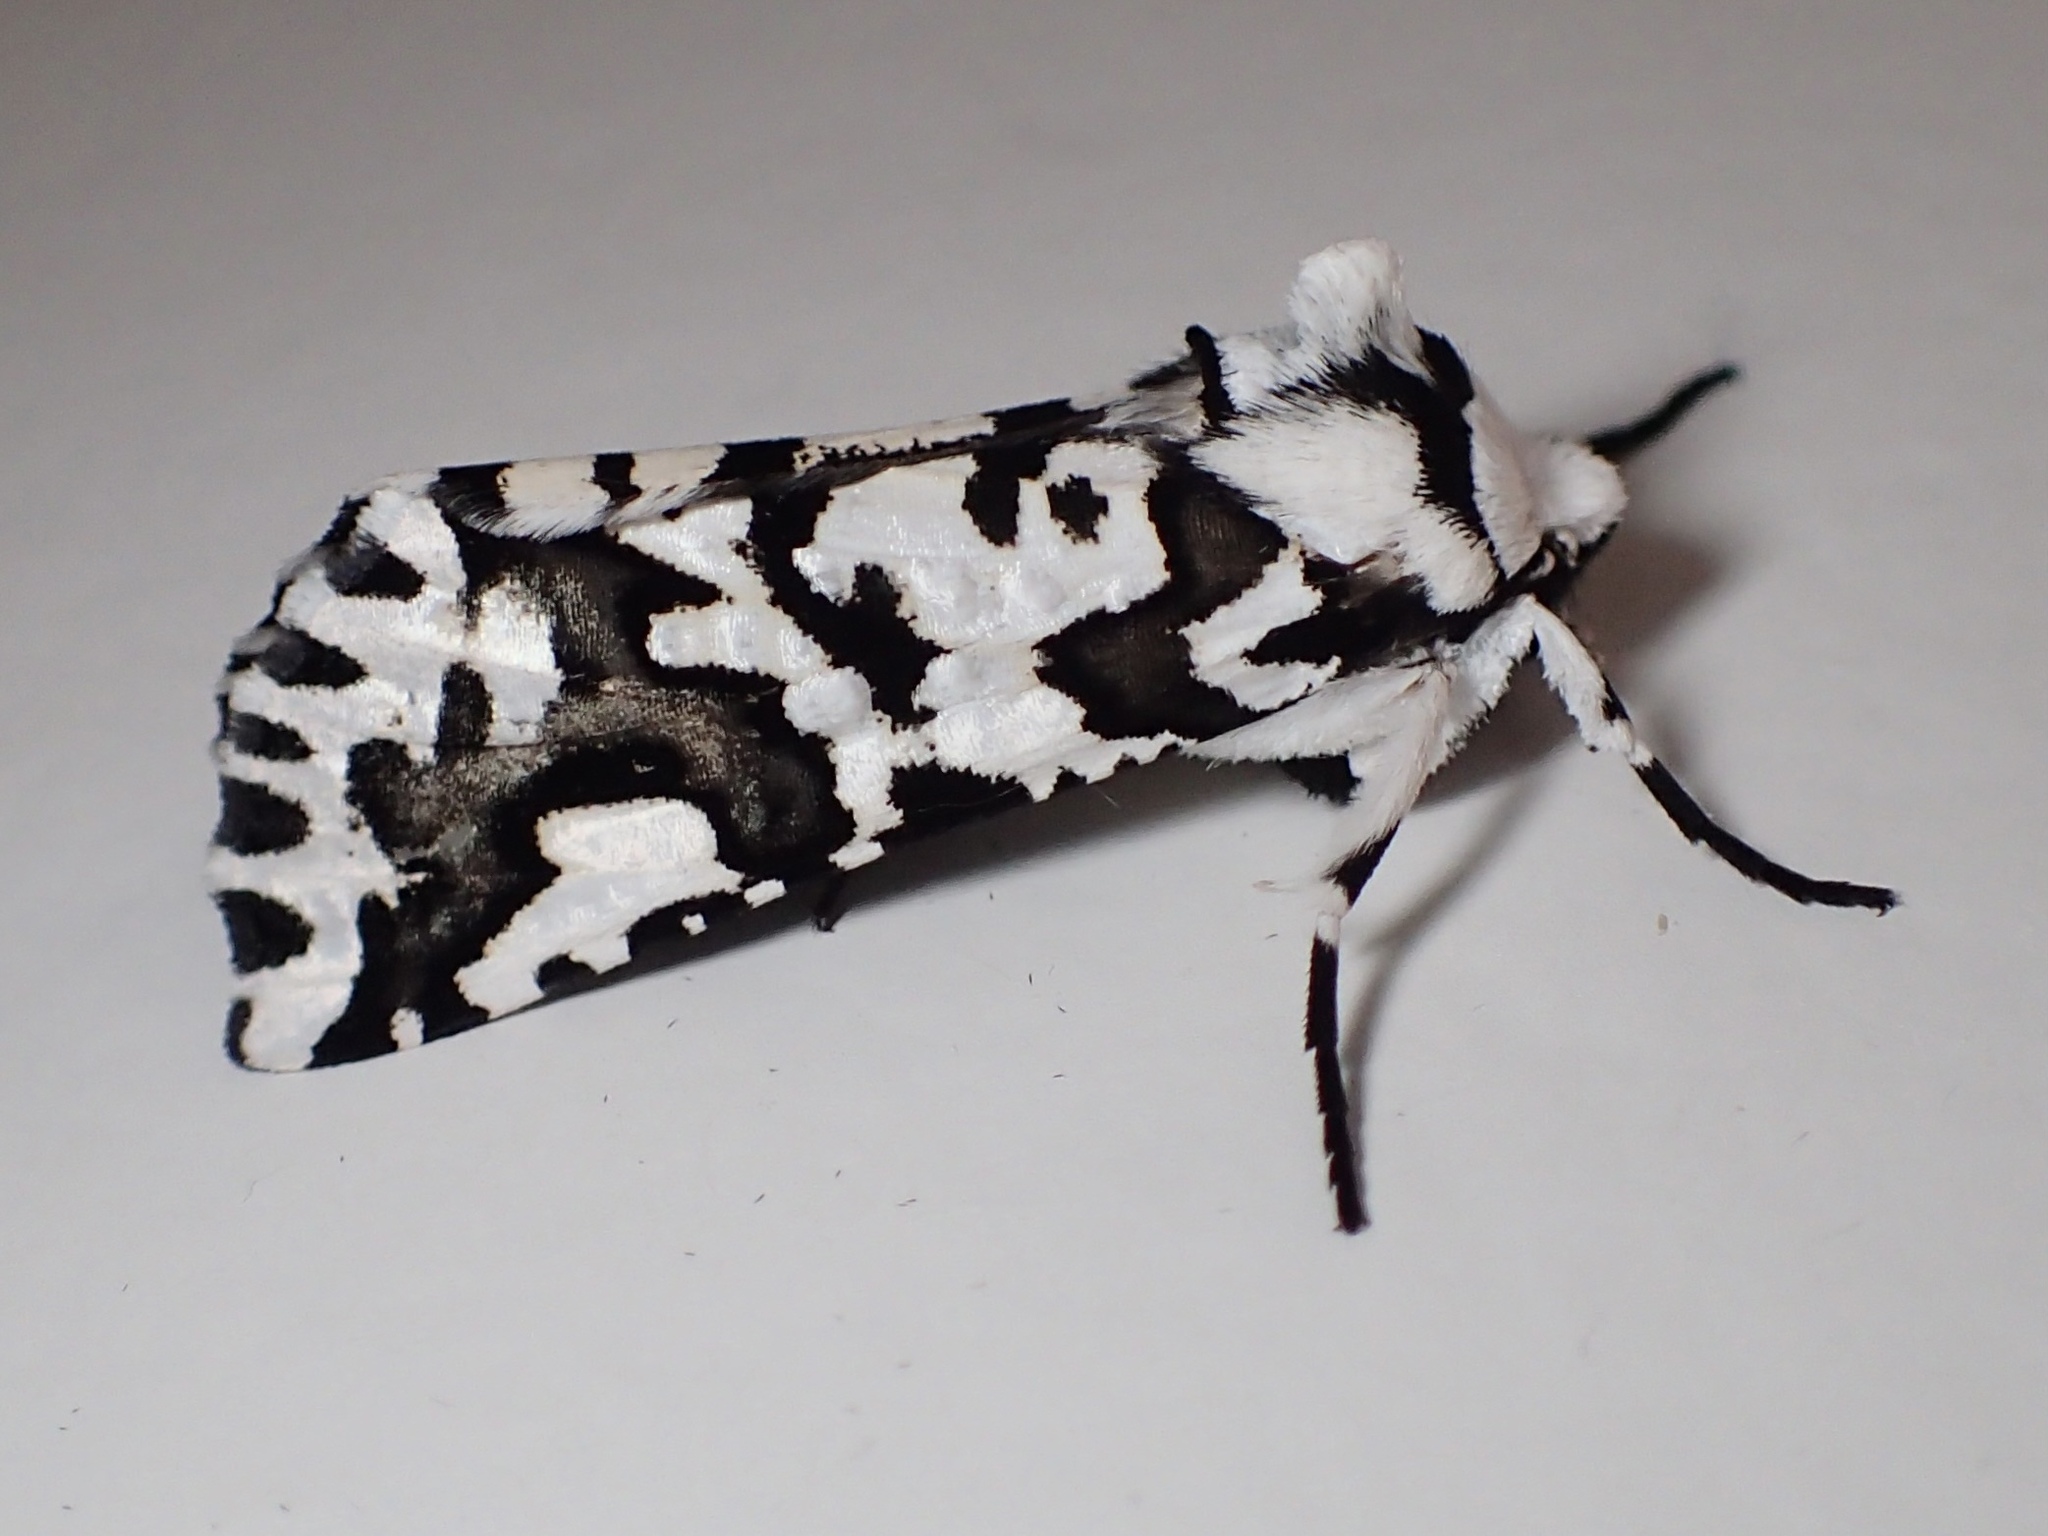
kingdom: Animalia
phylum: Arthropoda
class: Insecta
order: Lepidoptera
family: Geometridae
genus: Declana
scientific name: Declana
